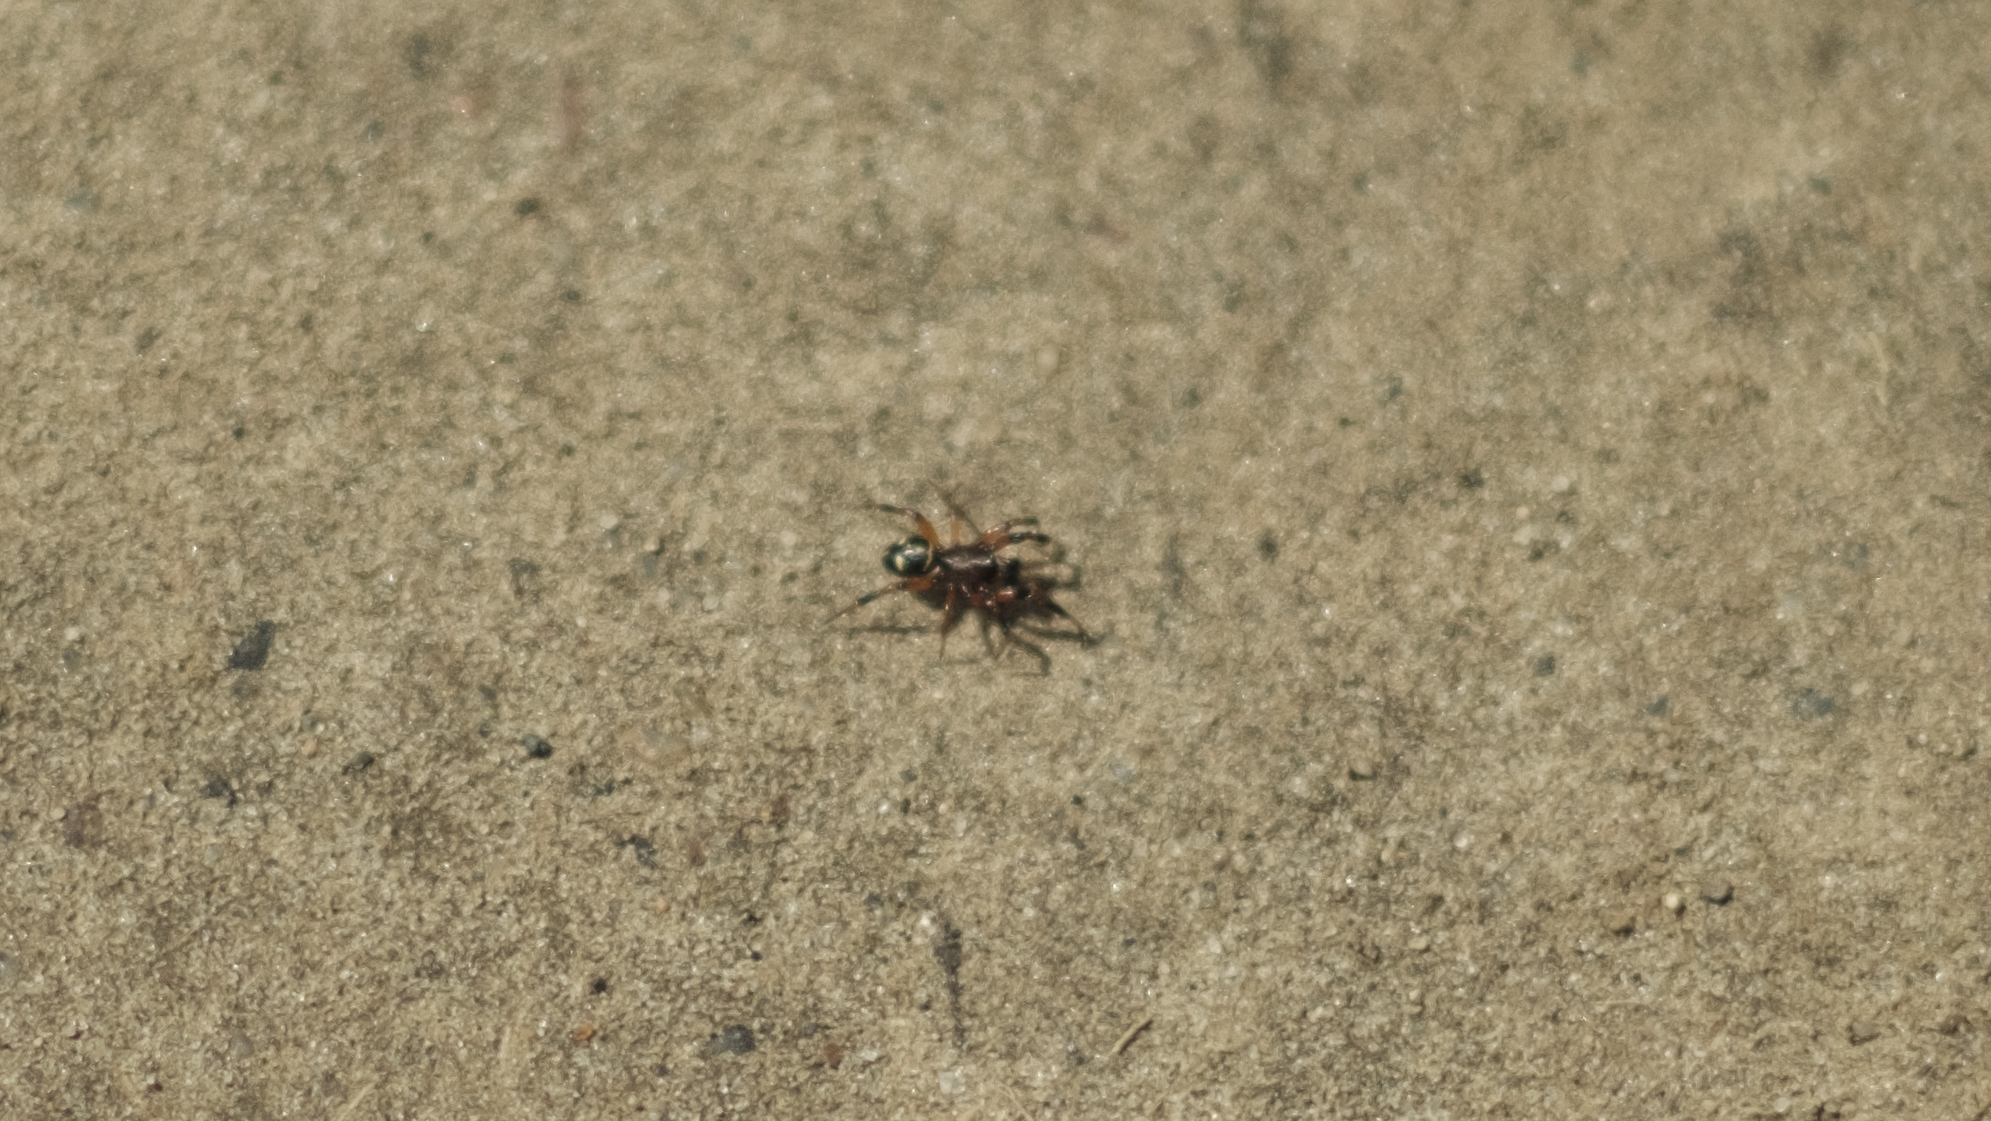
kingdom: Animalia
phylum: Arthropoda
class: Arachnida
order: Araneae
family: Theridiidae
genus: Asagena
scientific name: Asagena phalerata
